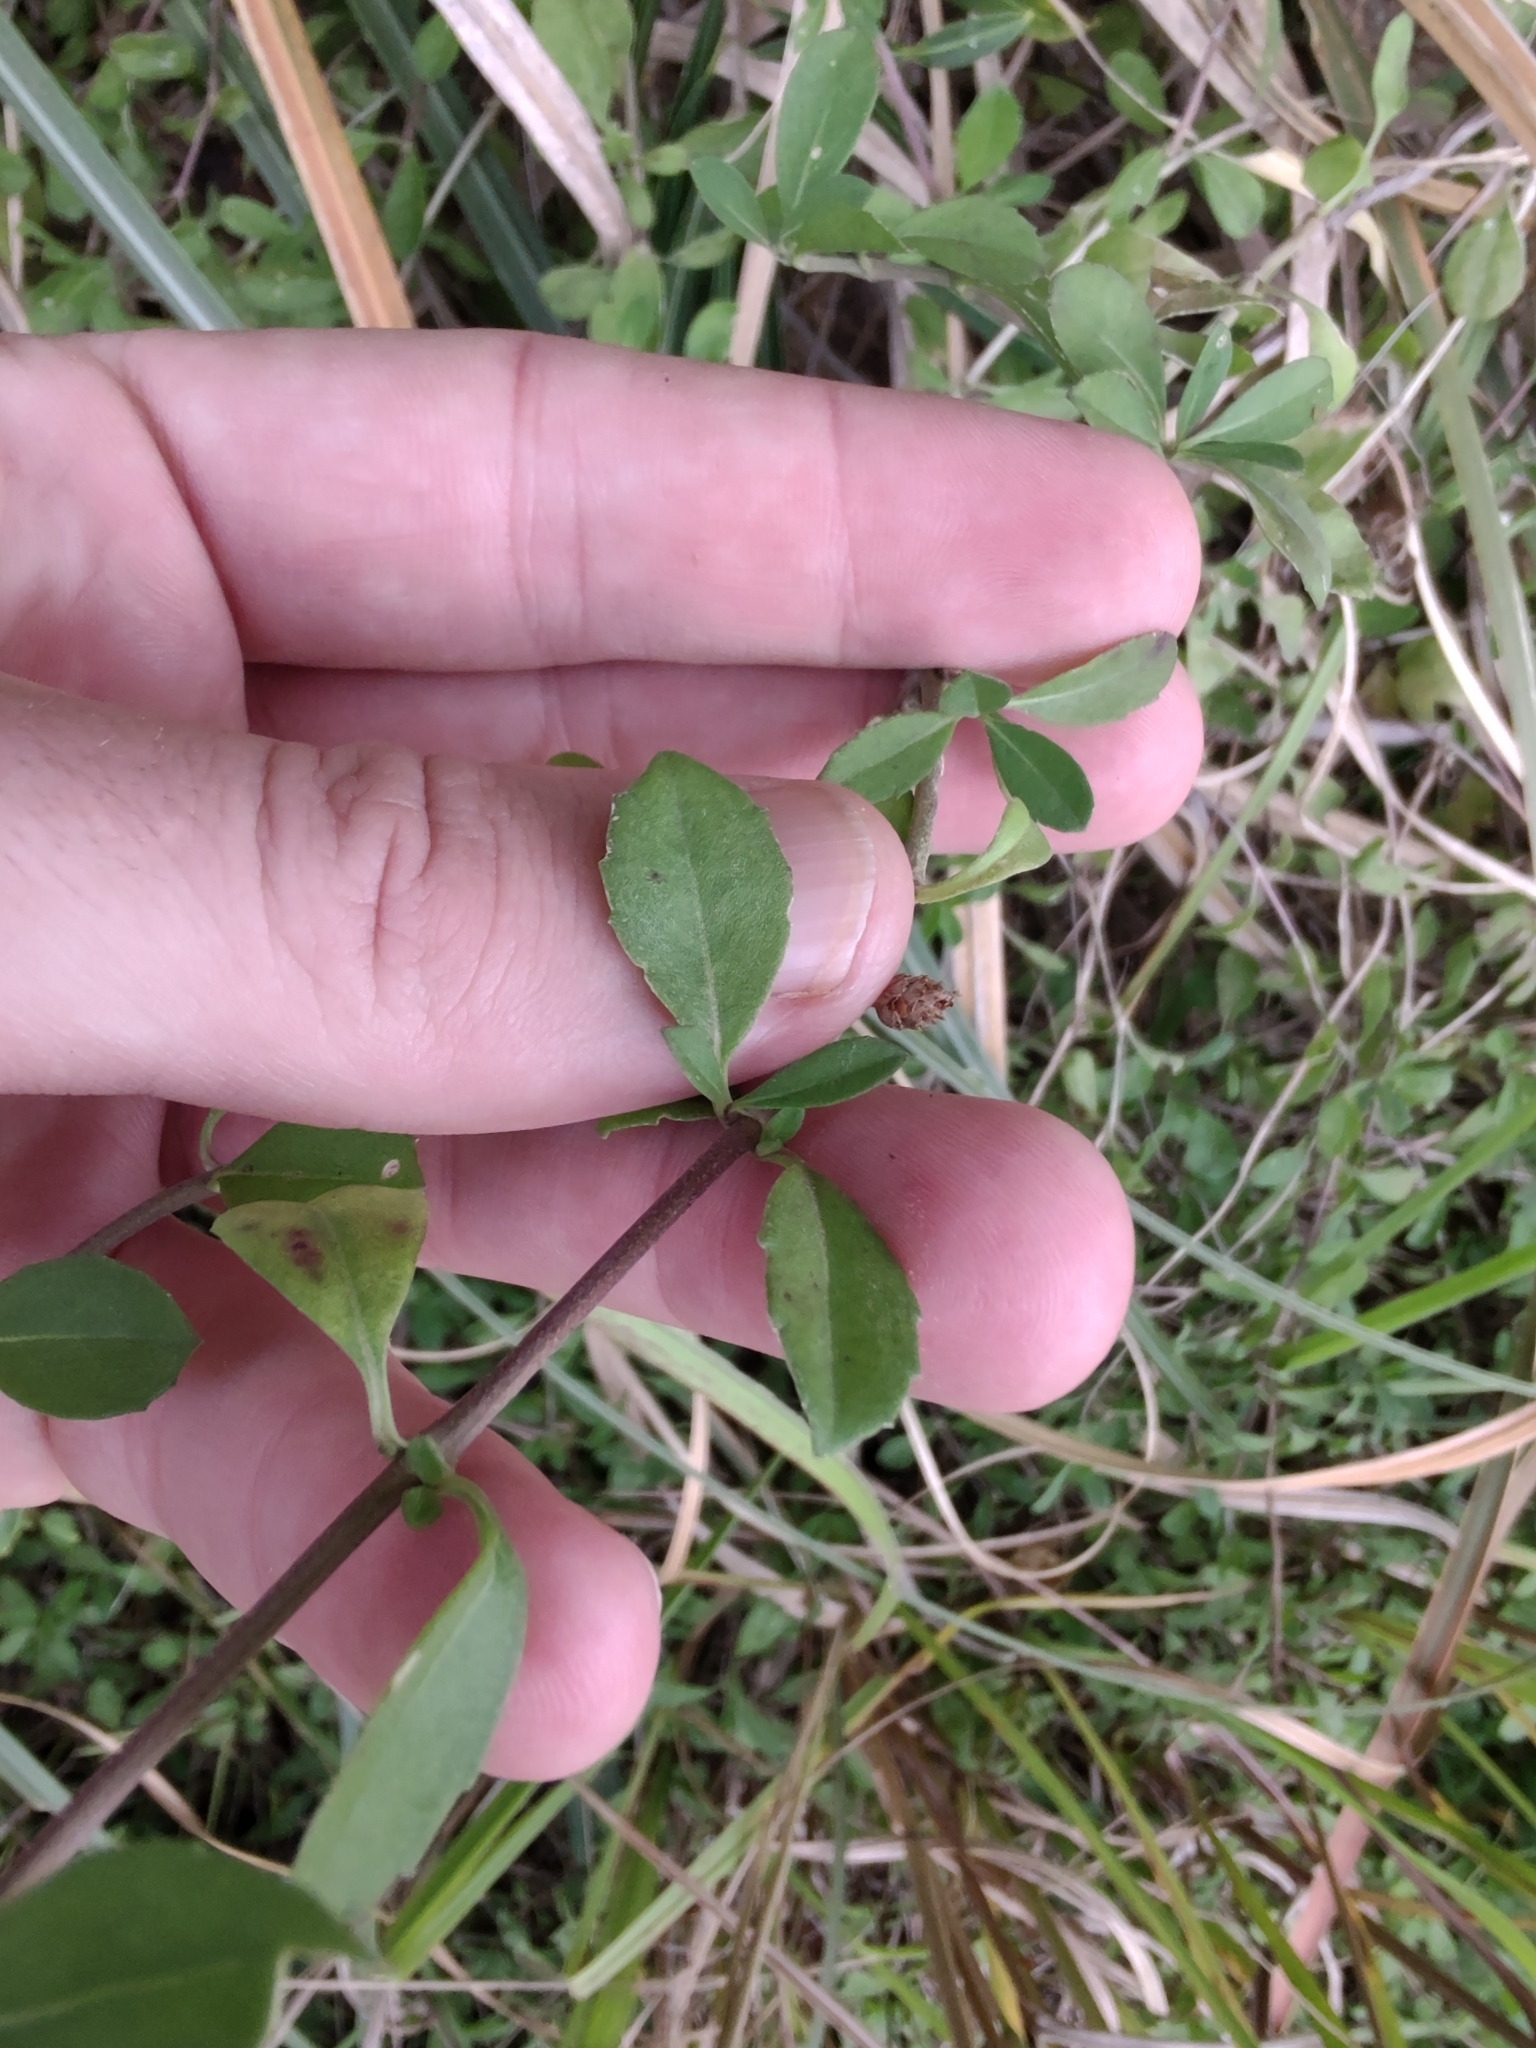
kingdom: Plantae
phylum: Tracheophyta
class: Magnoliopsida
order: Lamiales
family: Verbenaceae
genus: Phyla
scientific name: Phyla nodiflora
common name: Frogfruit
